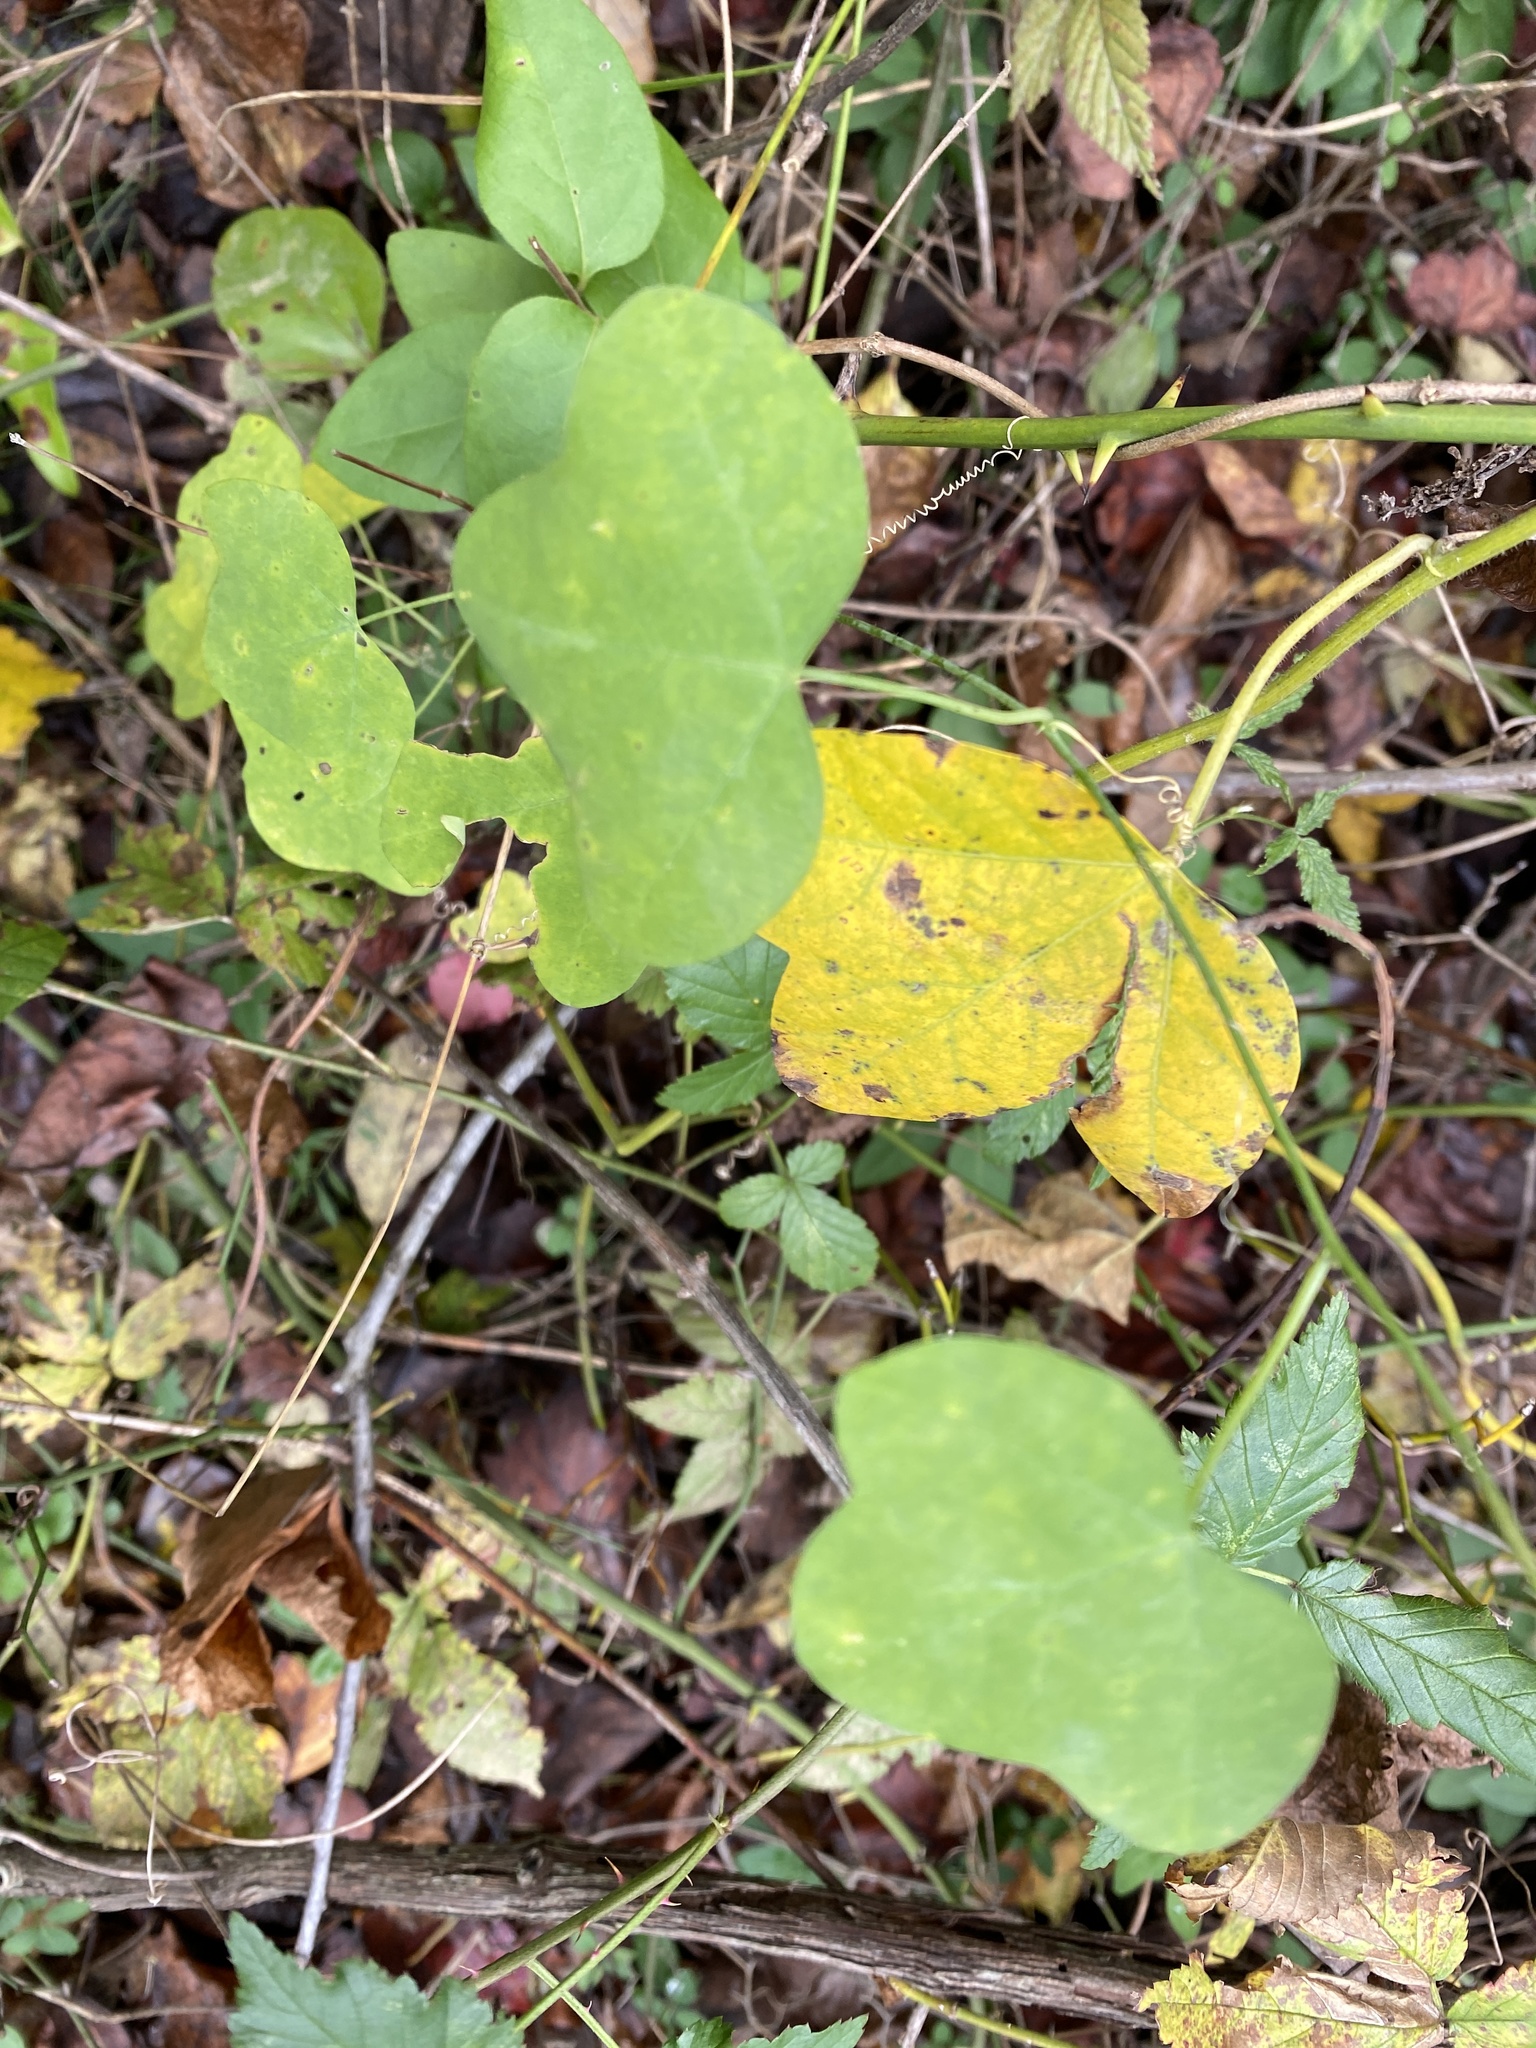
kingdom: Plantae
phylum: Tracheophyta
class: Magnoliopsida
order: Malpighiales
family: Passifloraceae
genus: Passiflora
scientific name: Passiflora lutea
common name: Yellow passionflower
